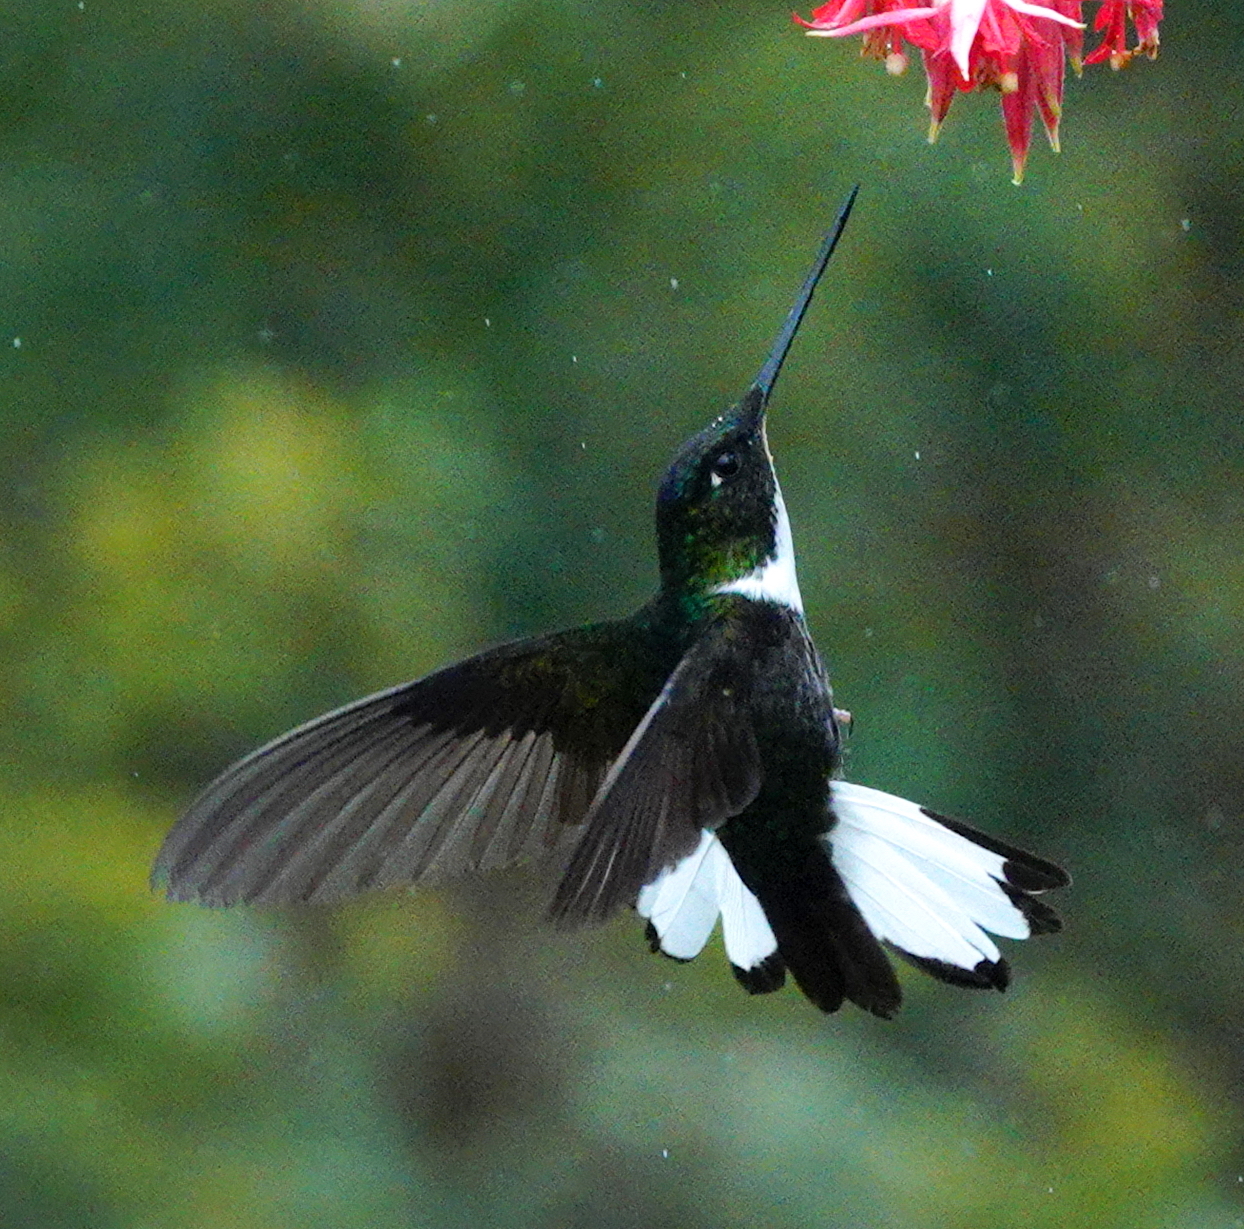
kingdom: Animalia
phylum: Chordata
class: Aves
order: Apodiformes
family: Trochilidae
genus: Coeligena
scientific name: Coeligena torquata
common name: Collared inca
